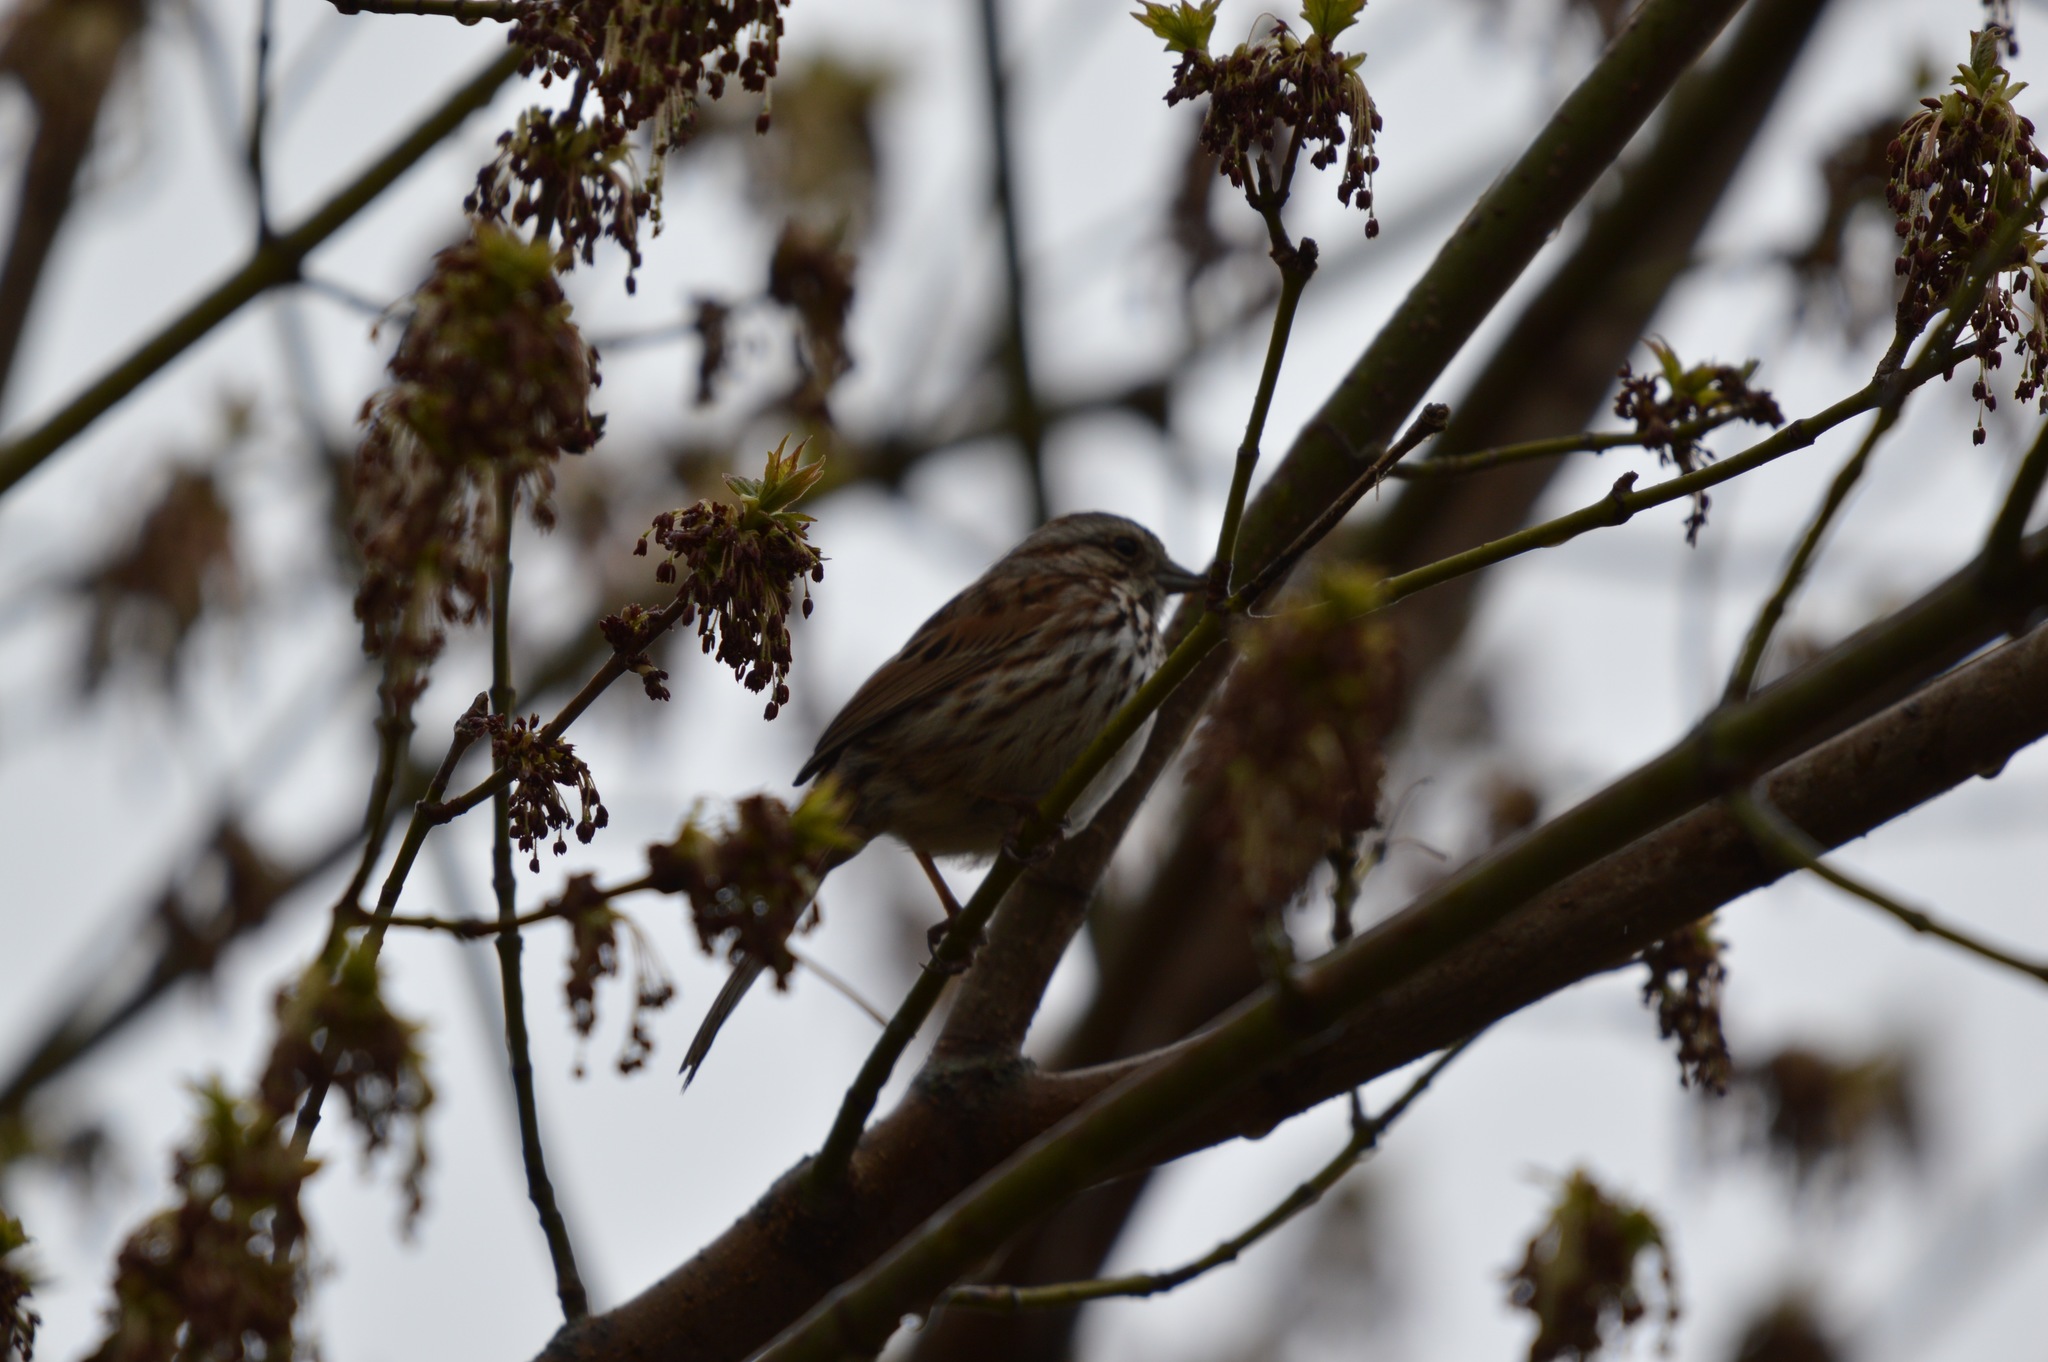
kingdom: Animalia
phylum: Chordata
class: Aves
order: Passeriformes
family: Passerellidae
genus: Melospiza
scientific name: Melospiza melodia
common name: Song sparrow
